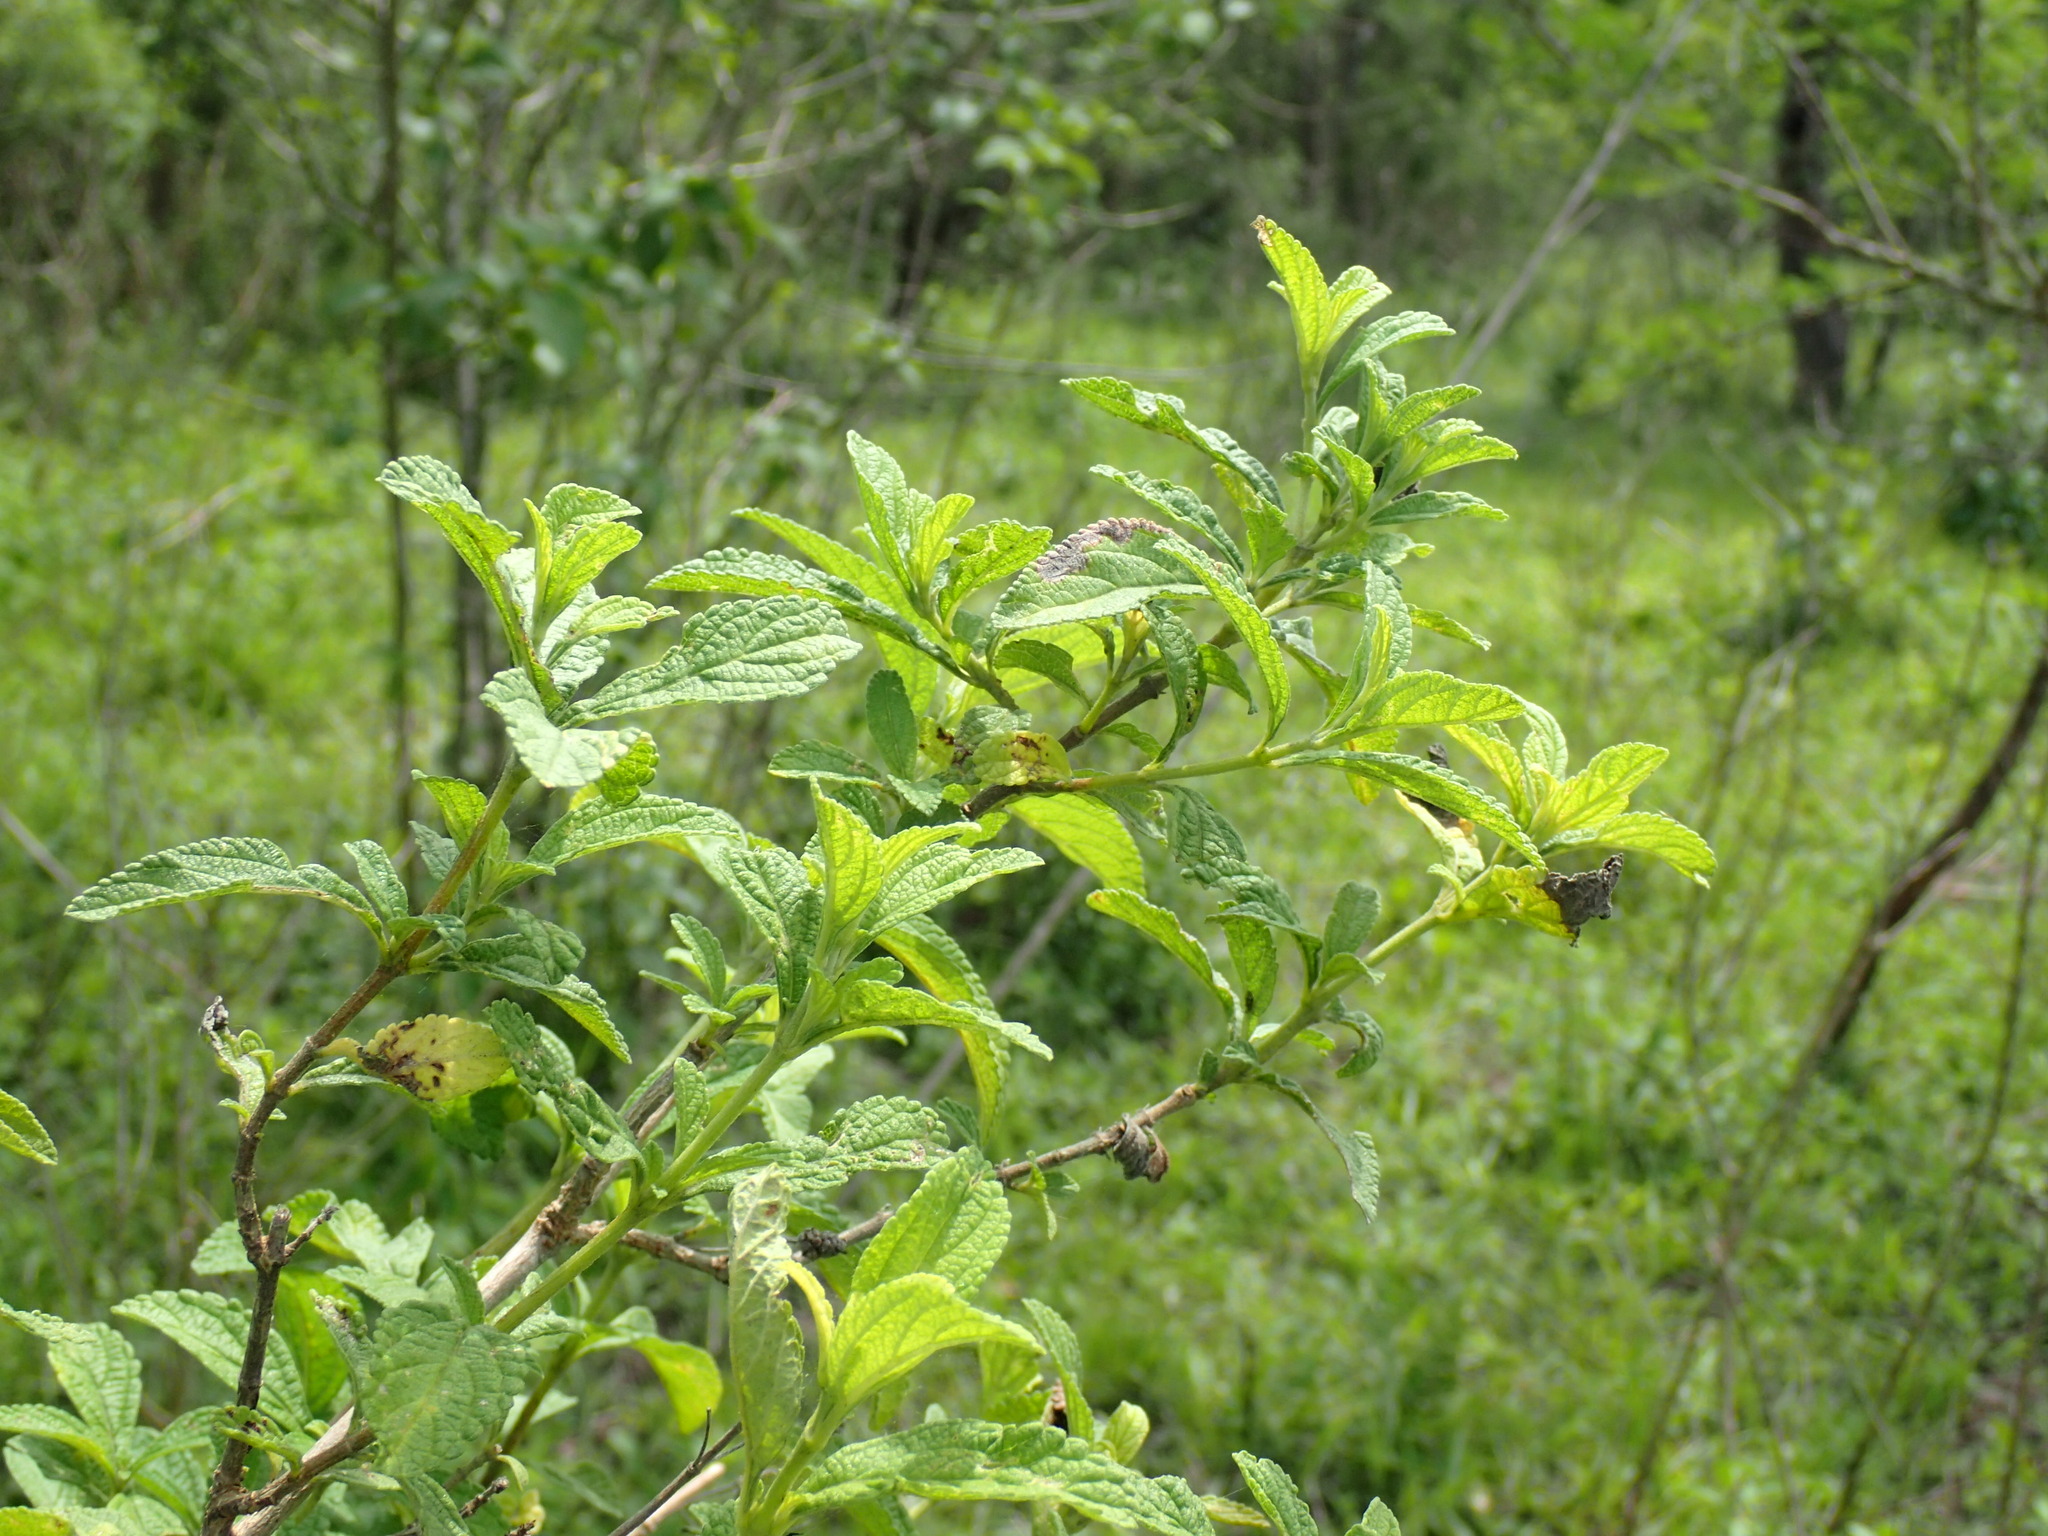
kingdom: Plantae
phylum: Tracheophyta
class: Magnoliopsida
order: Lamiales
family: Verbenaceae
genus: Lippia
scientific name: Lippia javanica
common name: Lemonbush
